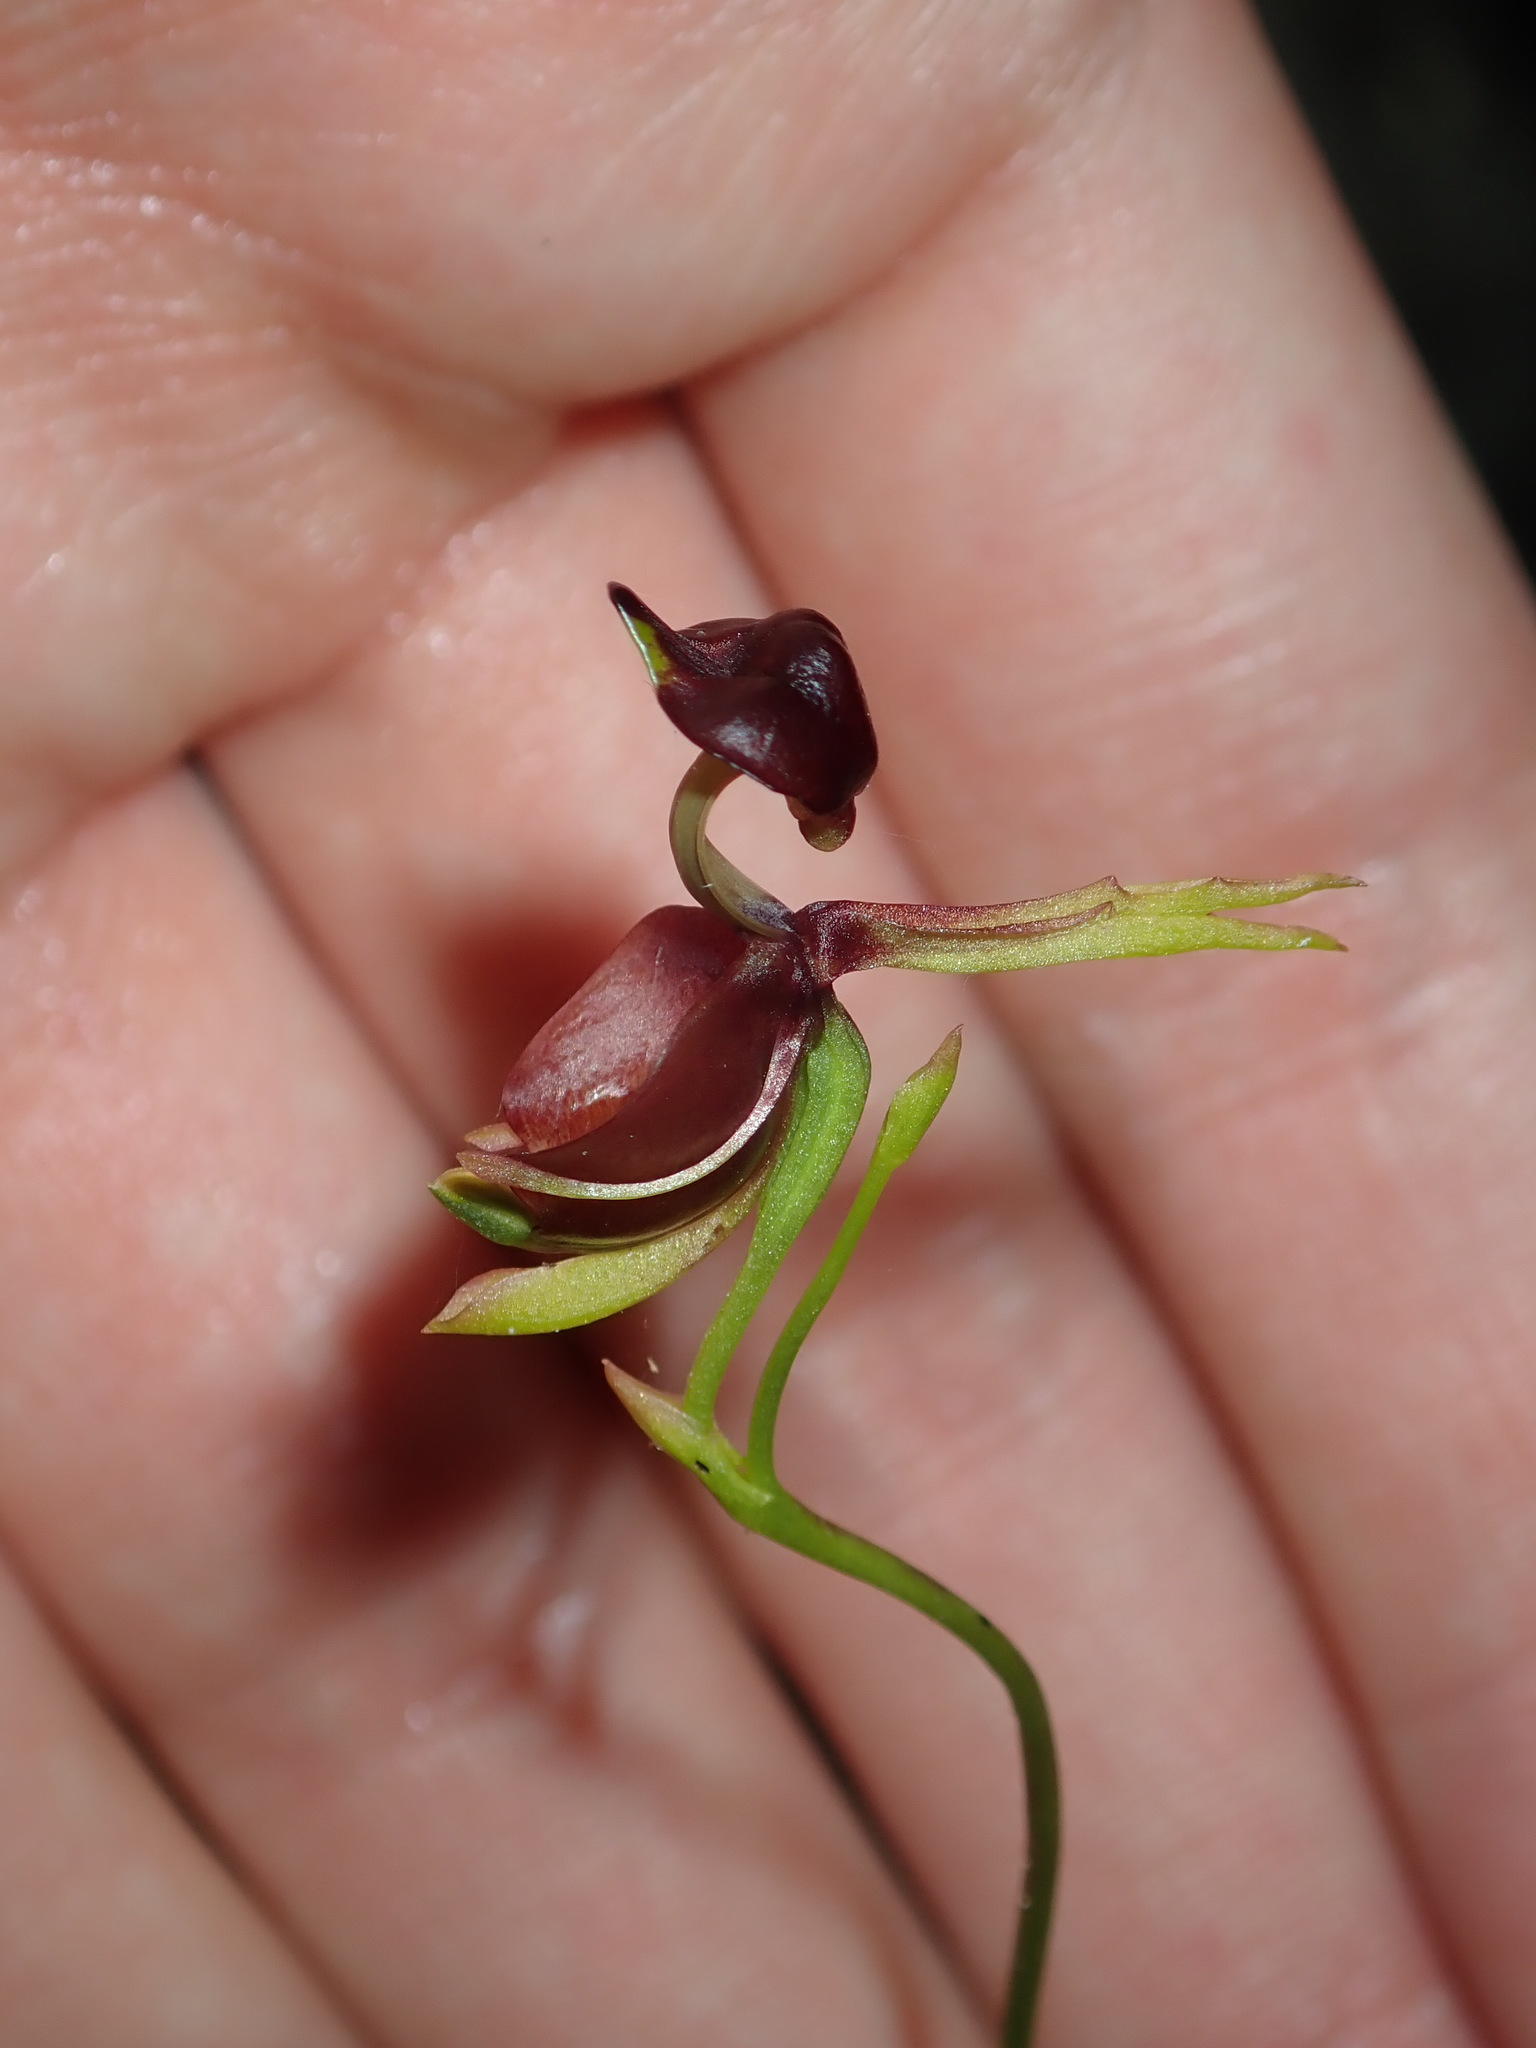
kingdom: Plantae
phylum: Tracheophyta
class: Liliopsida
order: Asparagales
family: Orchidaceae
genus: Caleana
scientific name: Caleana major
